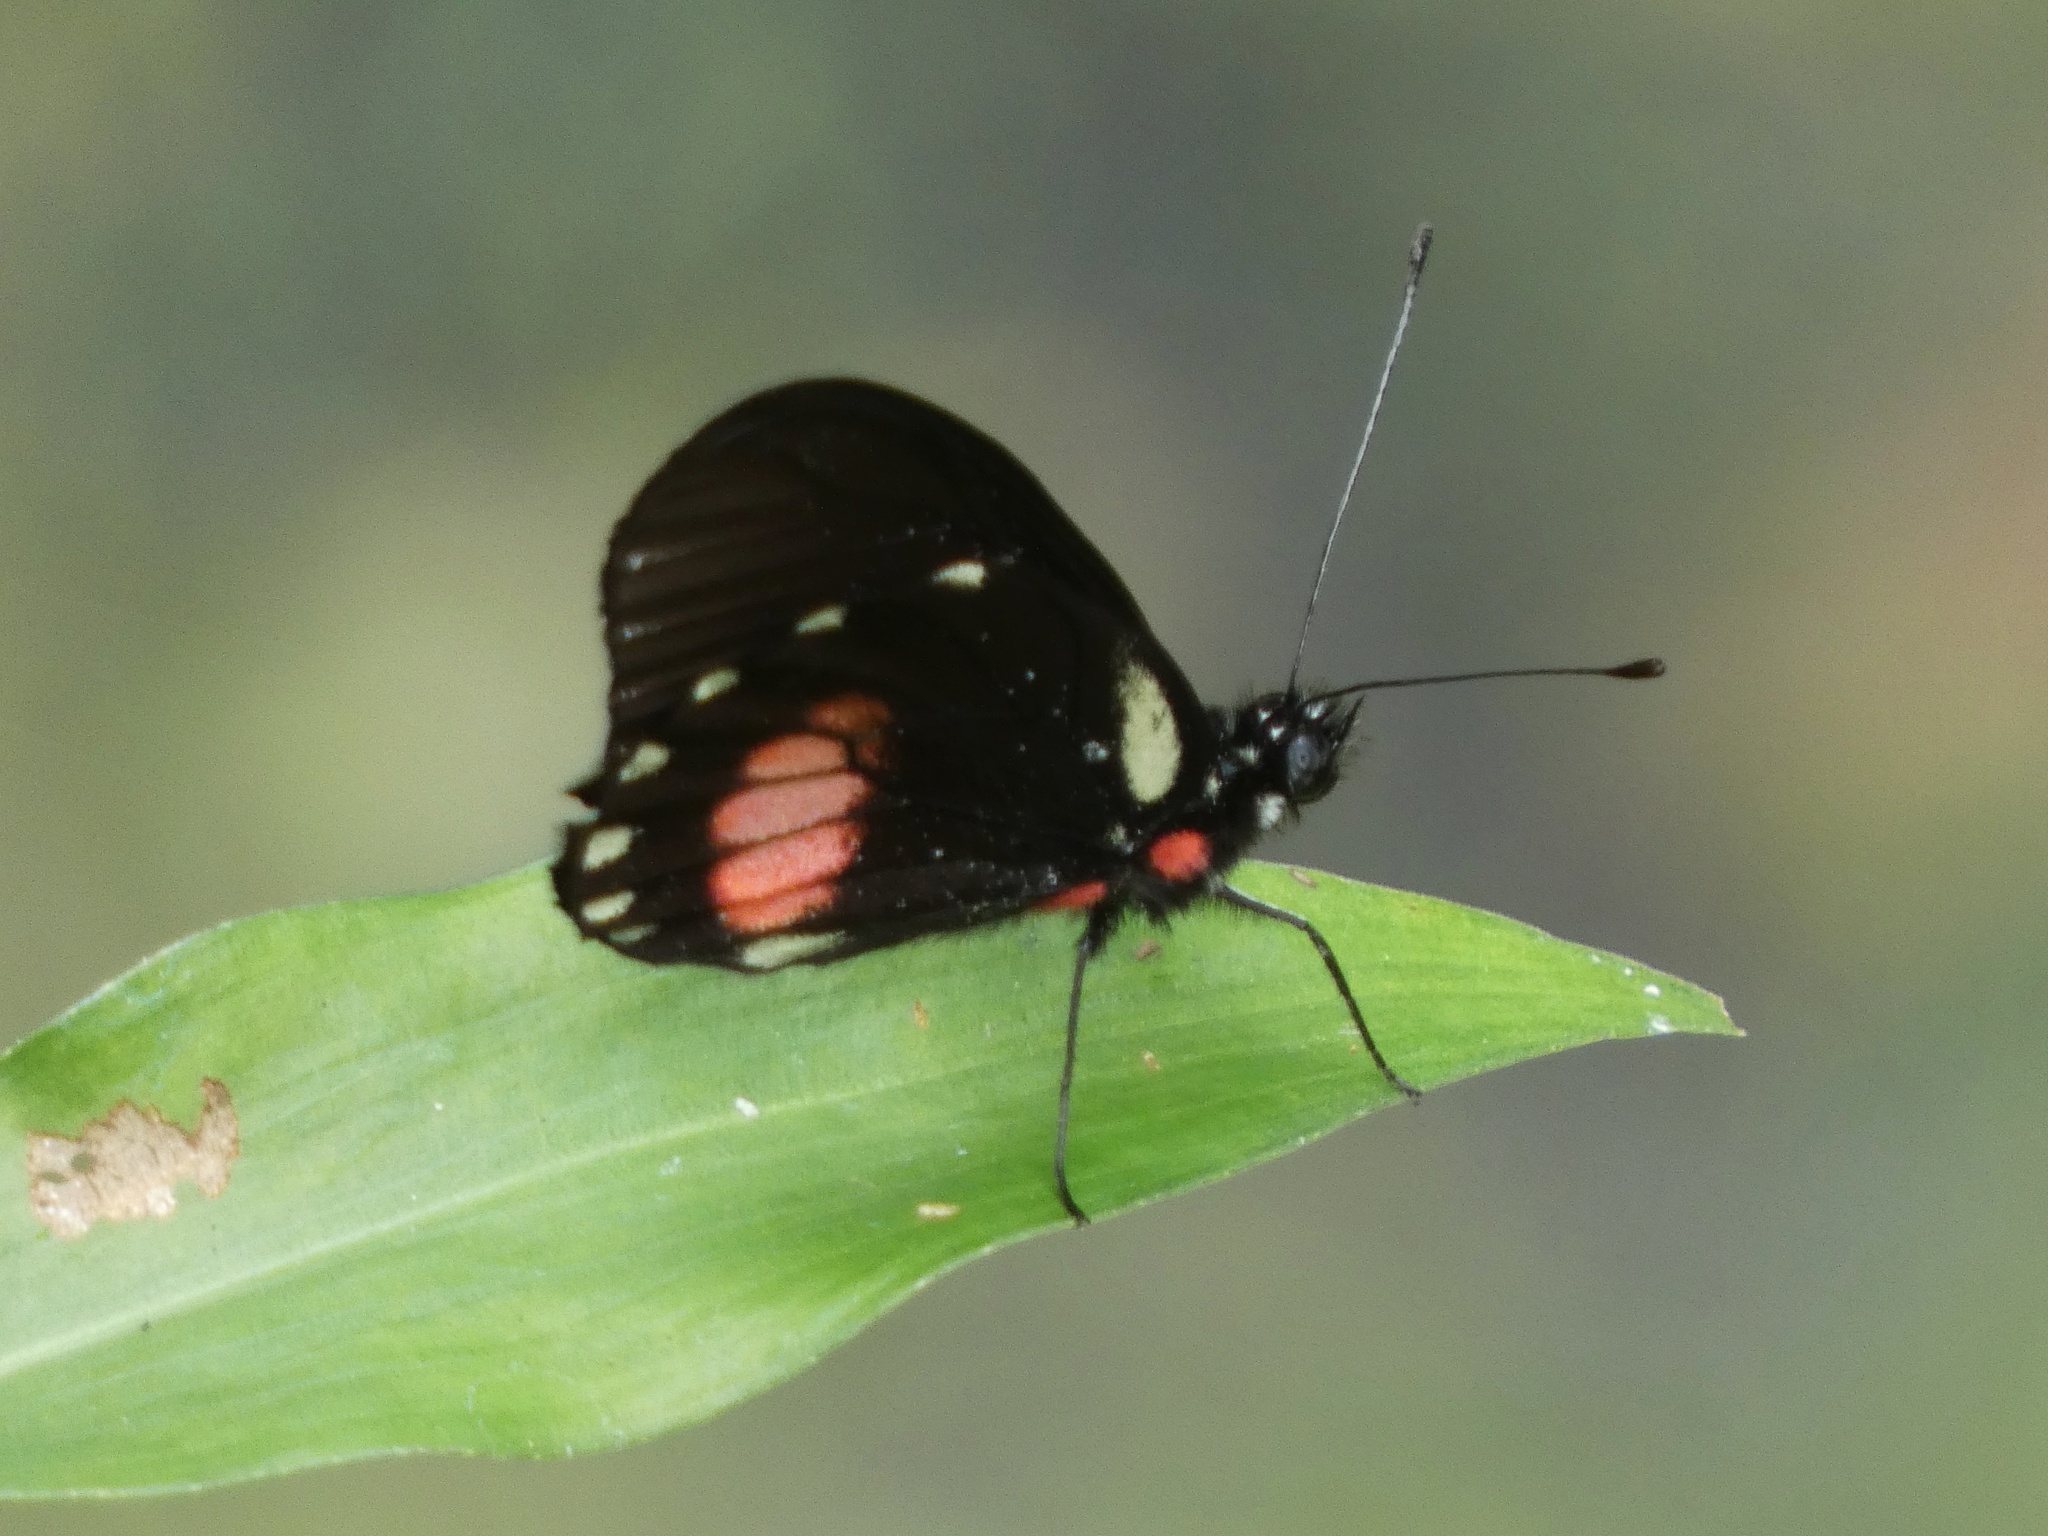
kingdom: Animalia
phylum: Arthropoda
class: Insecta
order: Lepidoptera
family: Pieridae
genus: Archonias
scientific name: Archonias brassolis
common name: Cattleheart white
